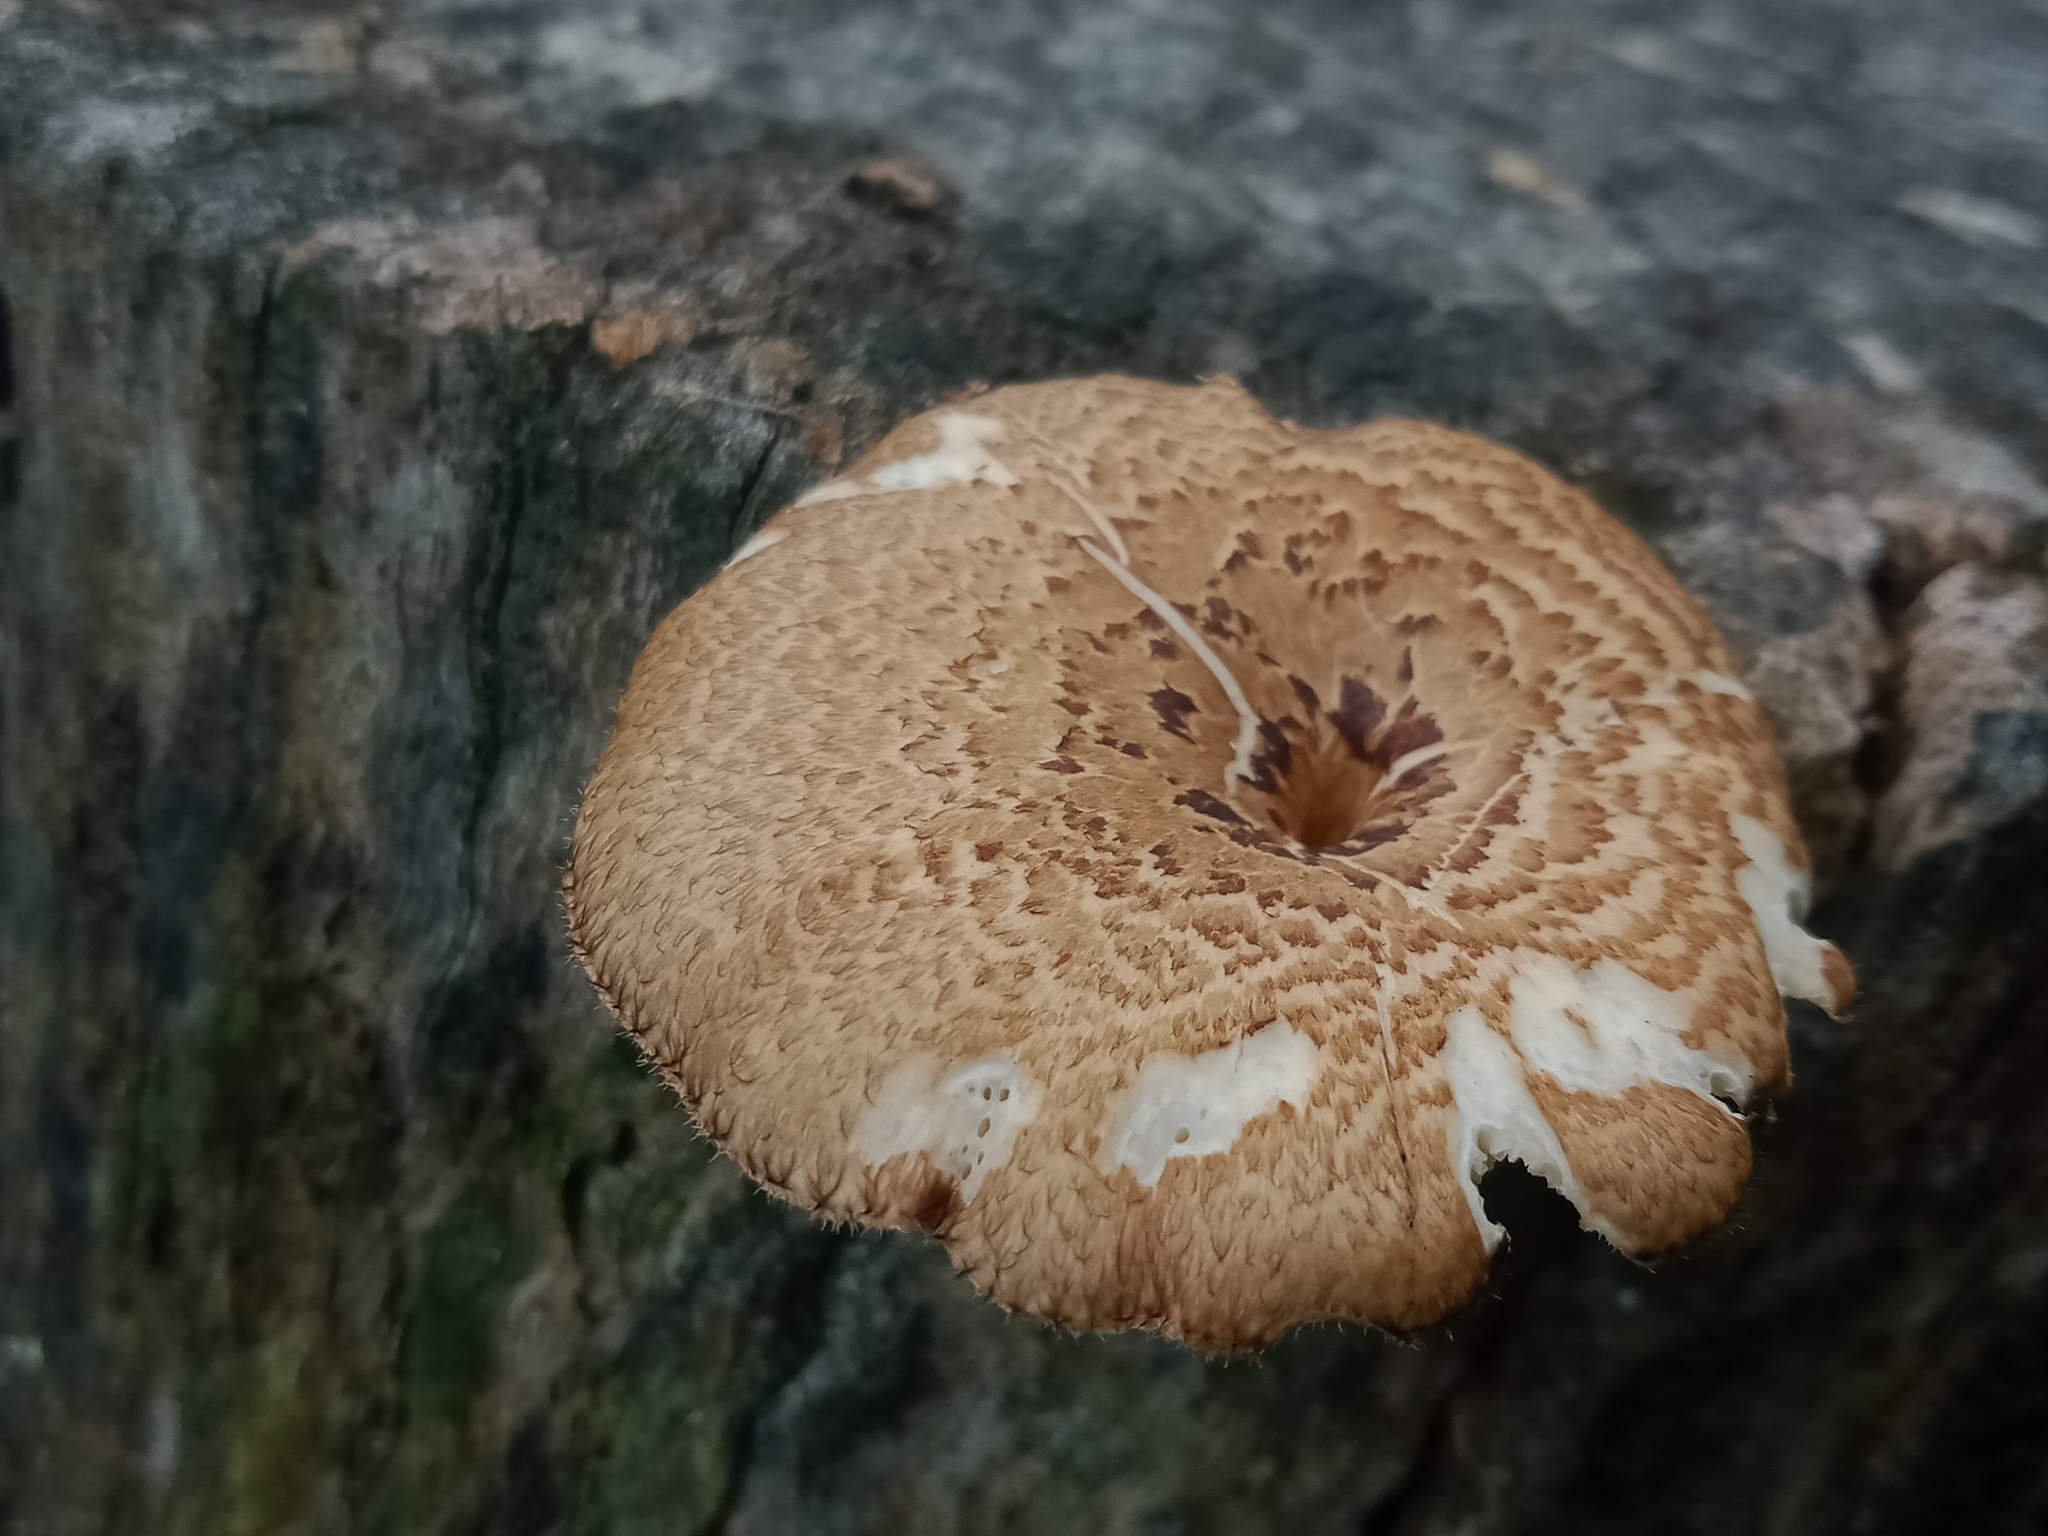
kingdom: Fungi
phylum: Basidiomycota
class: Agaricomycetes
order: Polyporales
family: Polyporaceae
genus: Lentinus
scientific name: Lentinus arcularius
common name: Spring polypore
